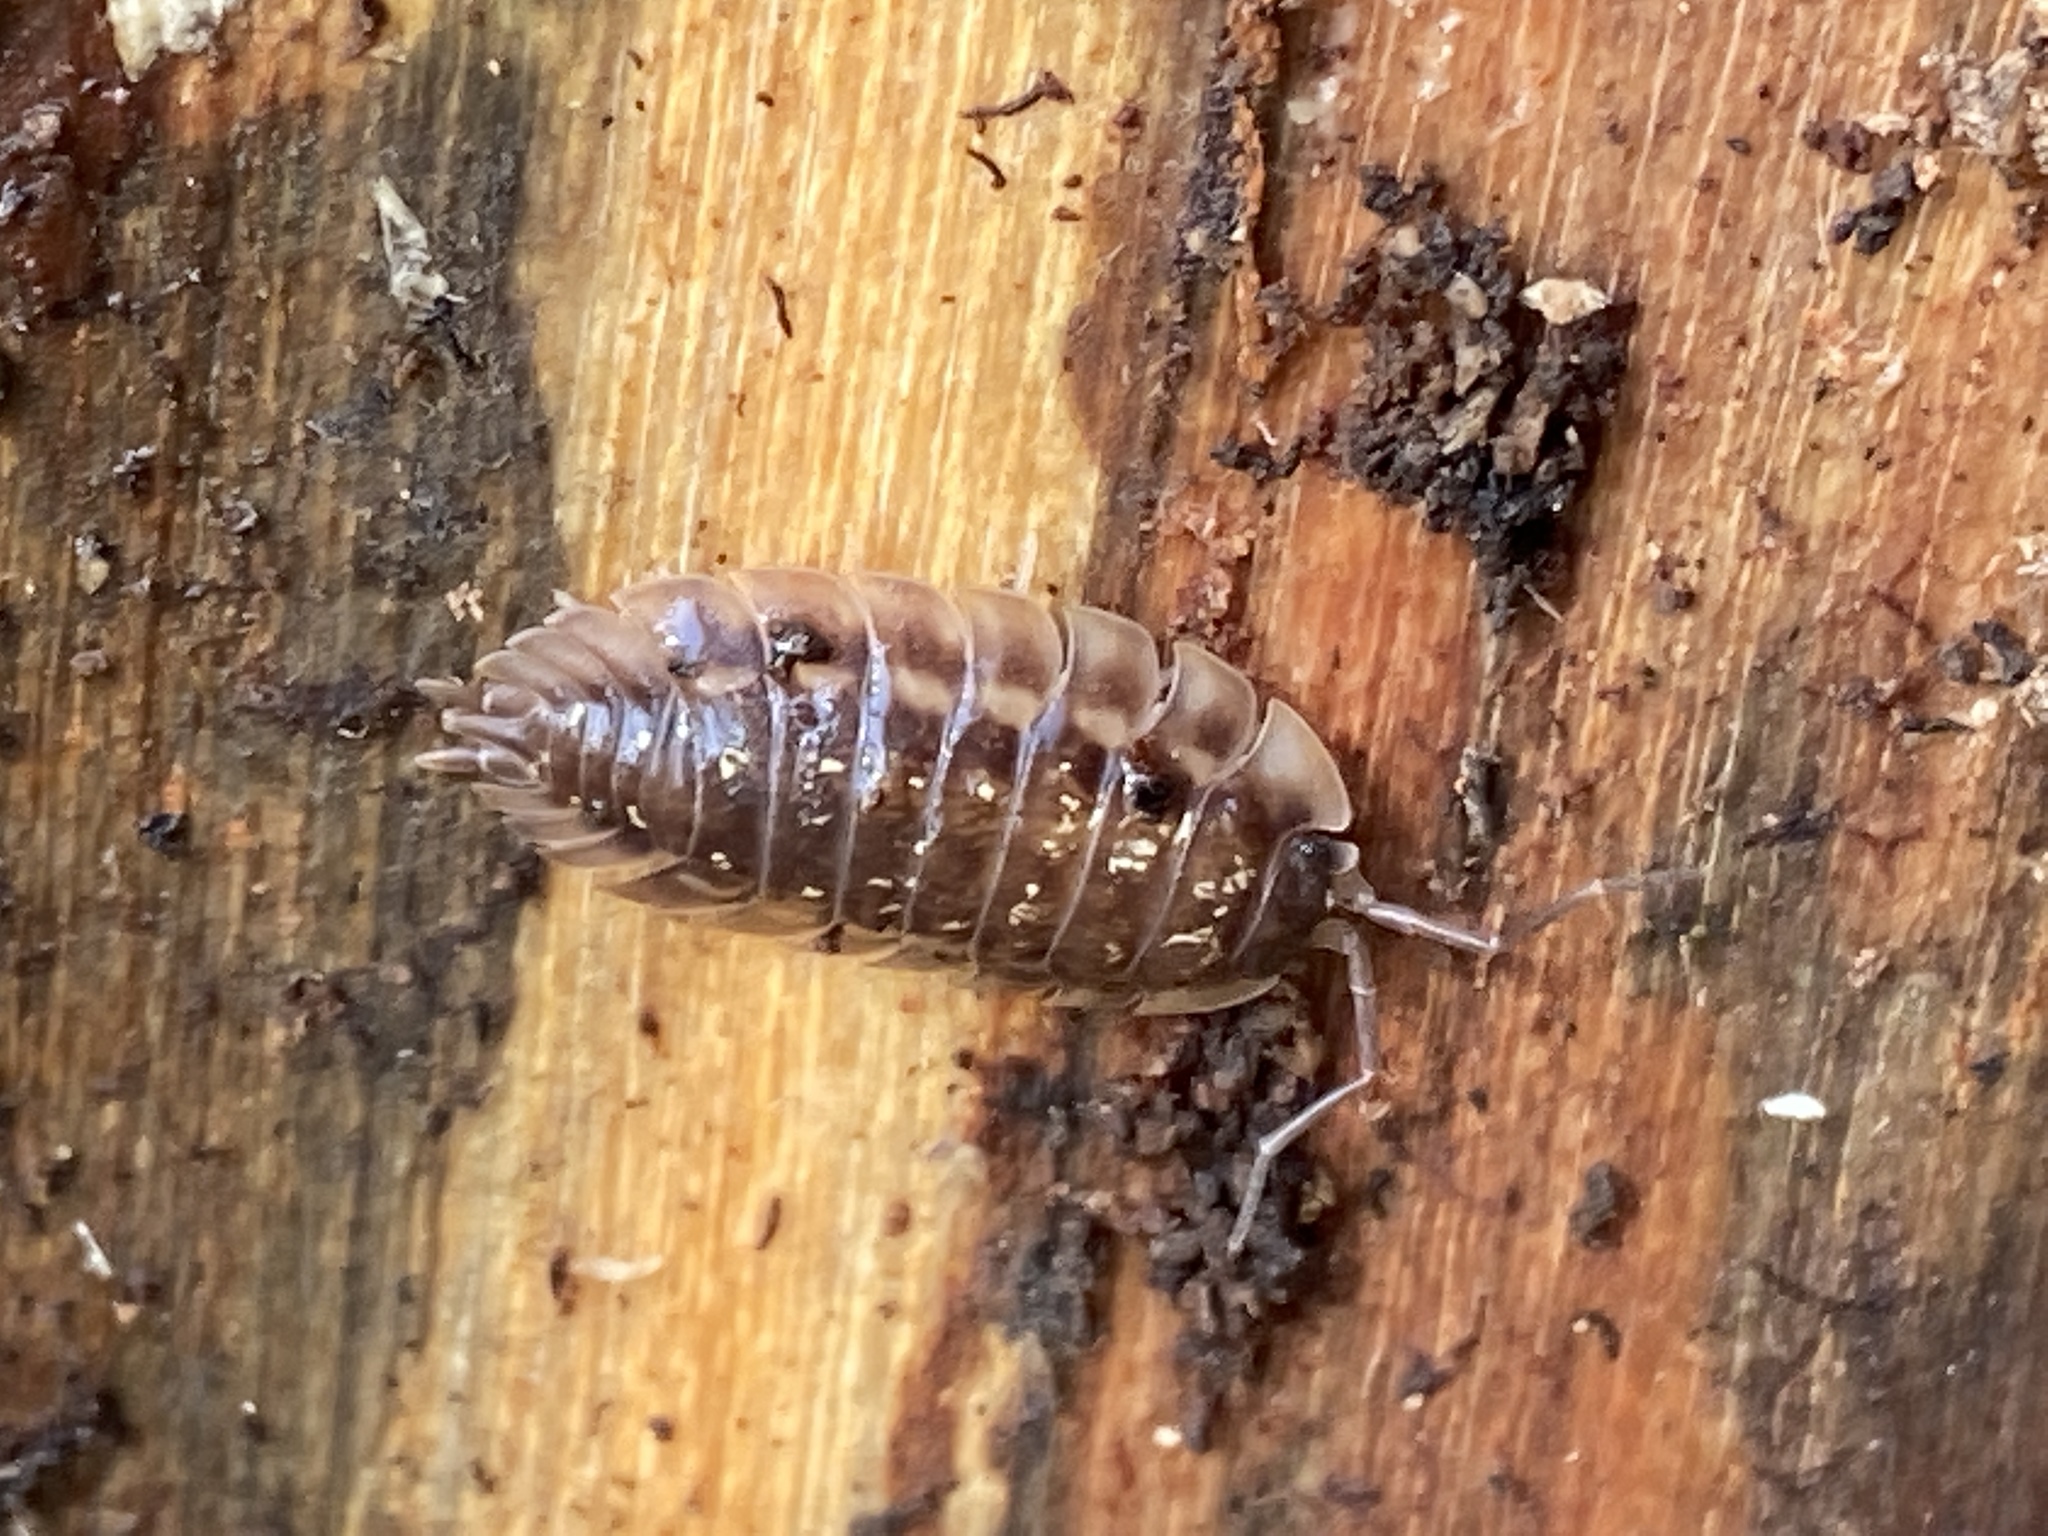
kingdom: Animalia
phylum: Arthropoda
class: Malacostraca
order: Isopoda
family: Oniscidae
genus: Oniscus
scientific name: Oniscus asellus
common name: Common shiny woodlouse
